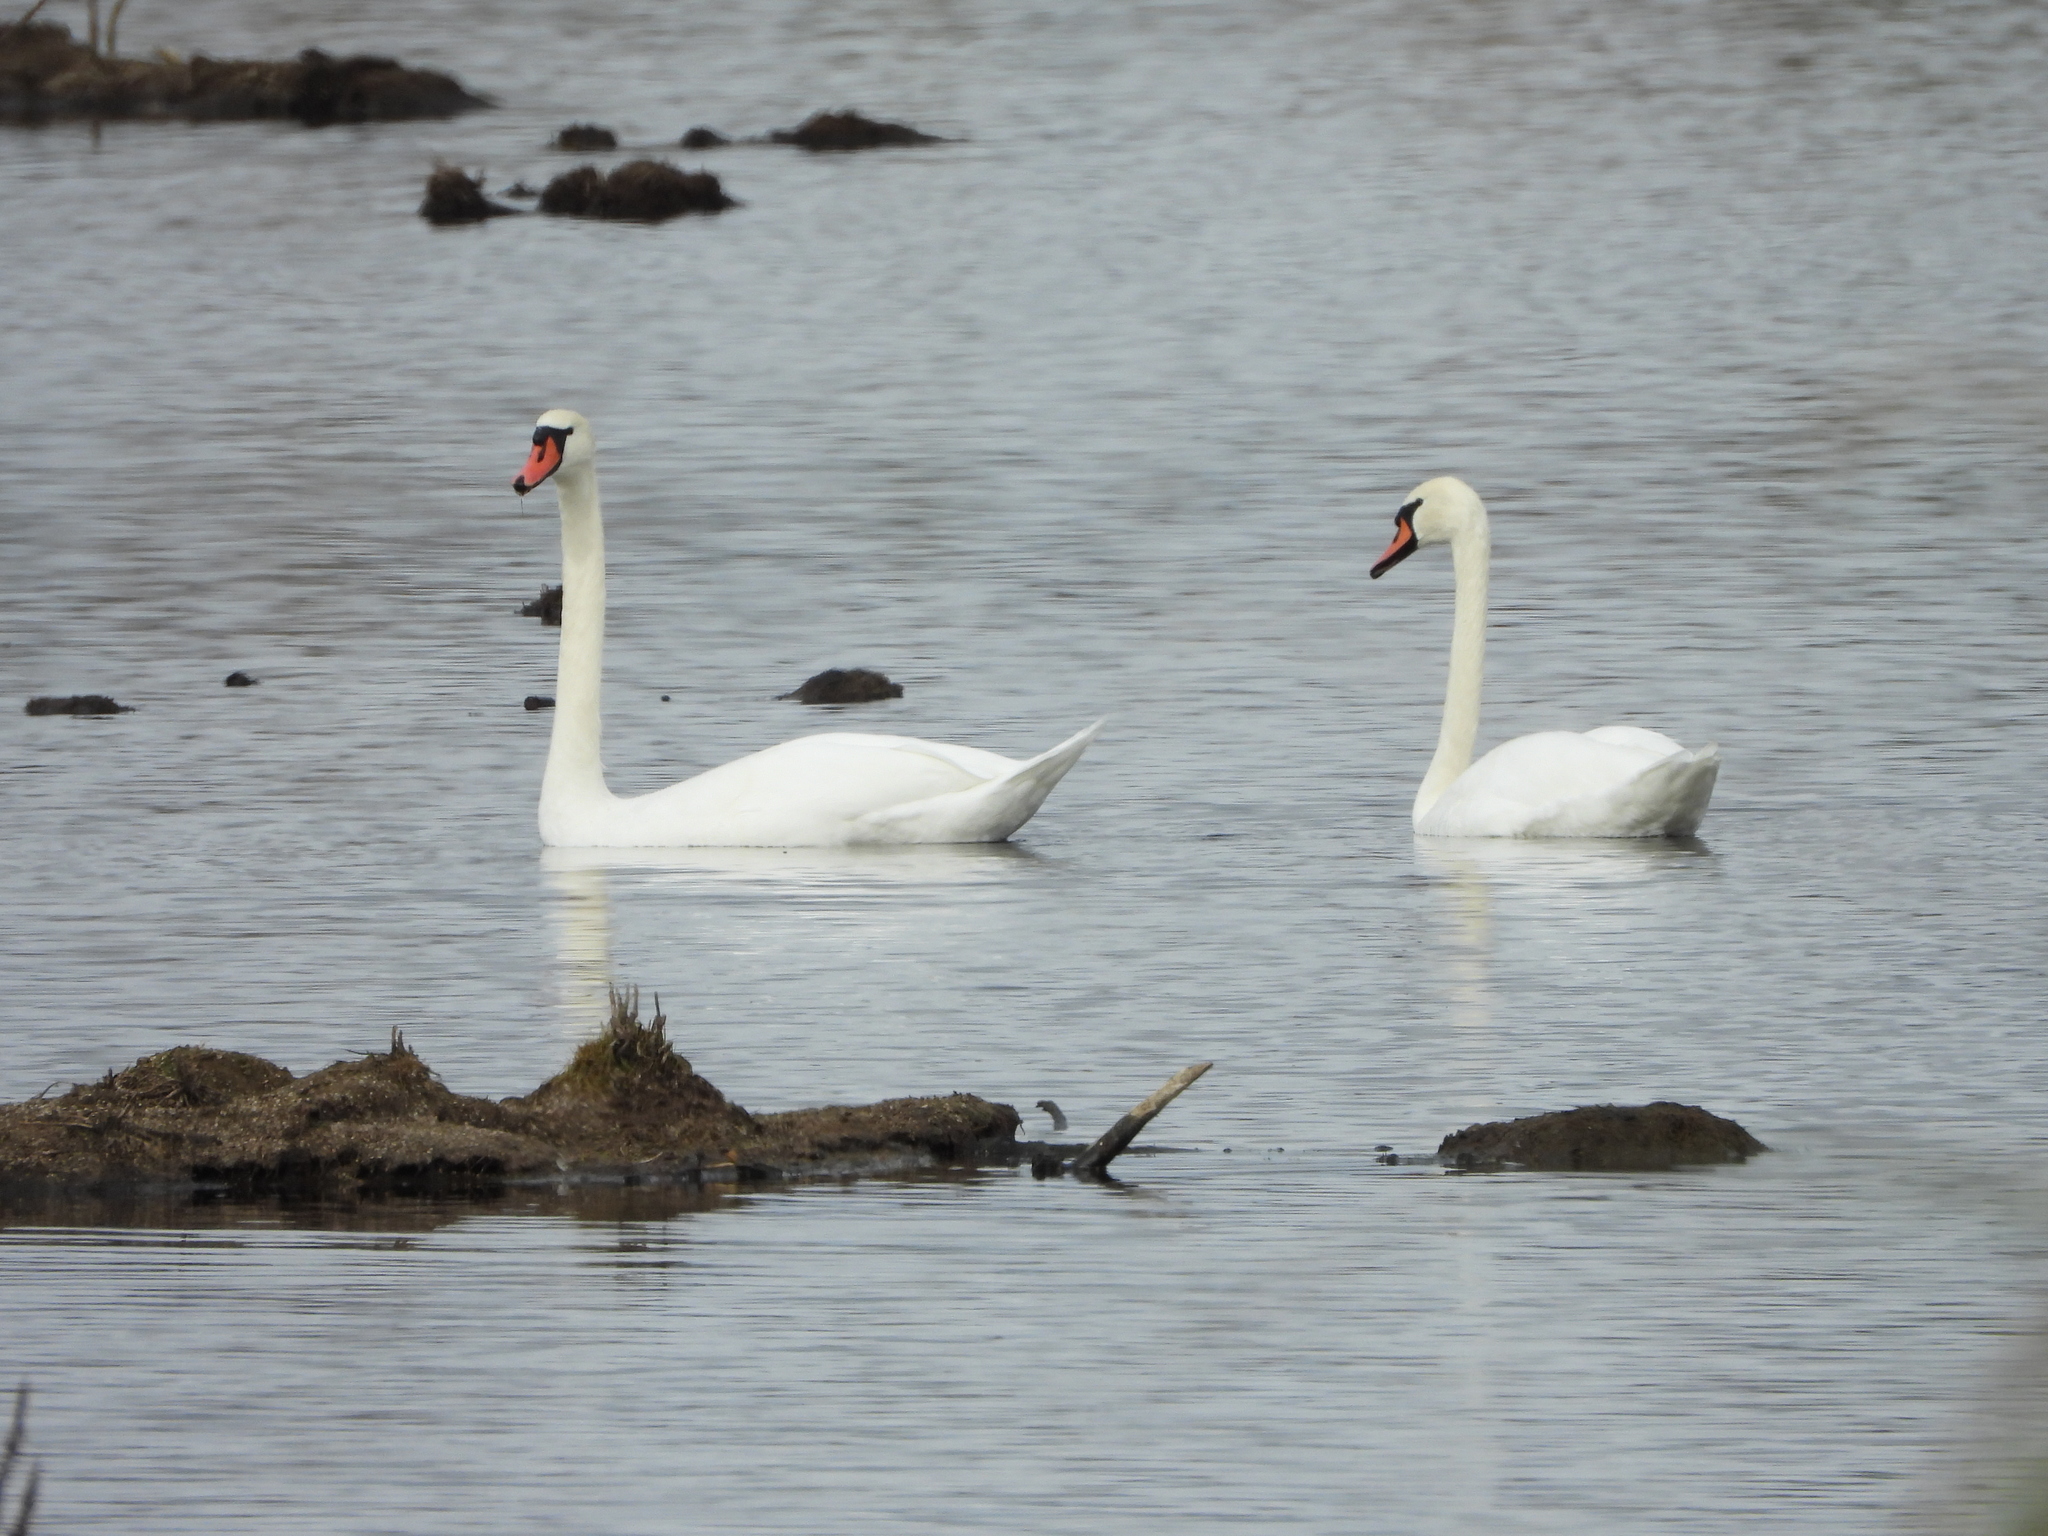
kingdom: Animalia
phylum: Chordata
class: Aves
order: Anseriformes
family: Anatidae
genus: Cygnus
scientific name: Cygnus olor
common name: Mute swan
